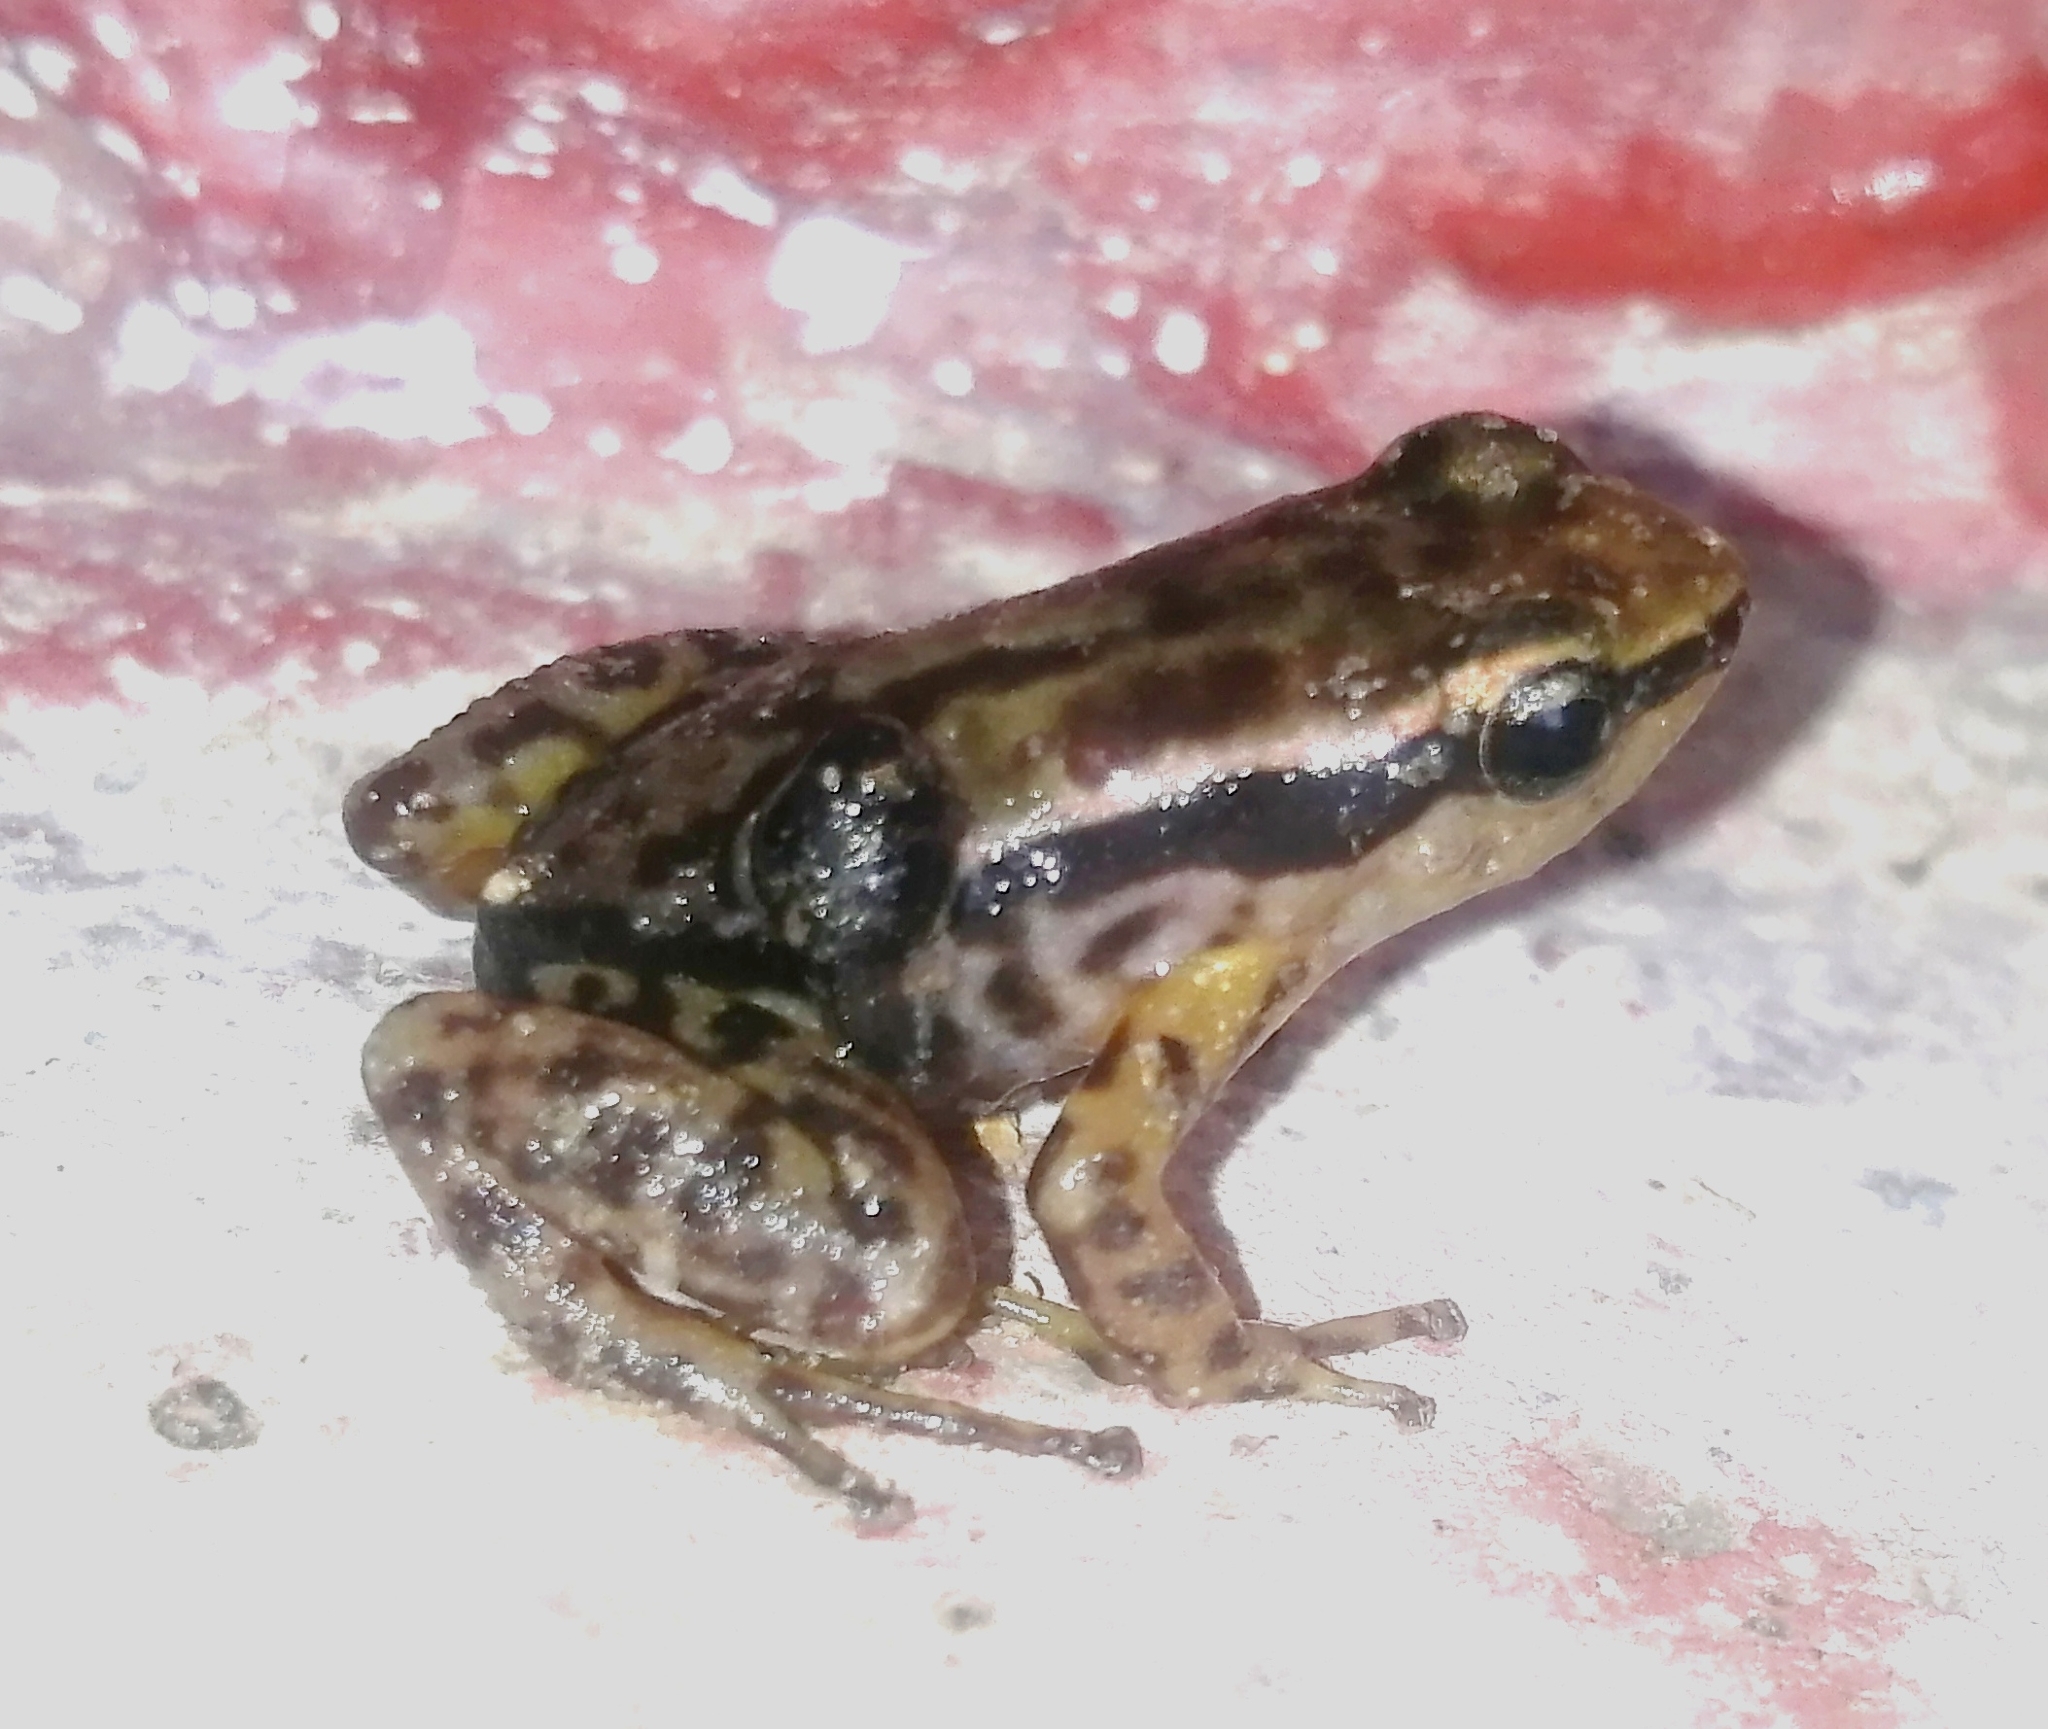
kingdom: Animalia
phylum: Chordata
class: Amphibia
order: Anura
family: Dendrobatidae
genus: Colostethus
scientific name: Colostethus ruthveni
